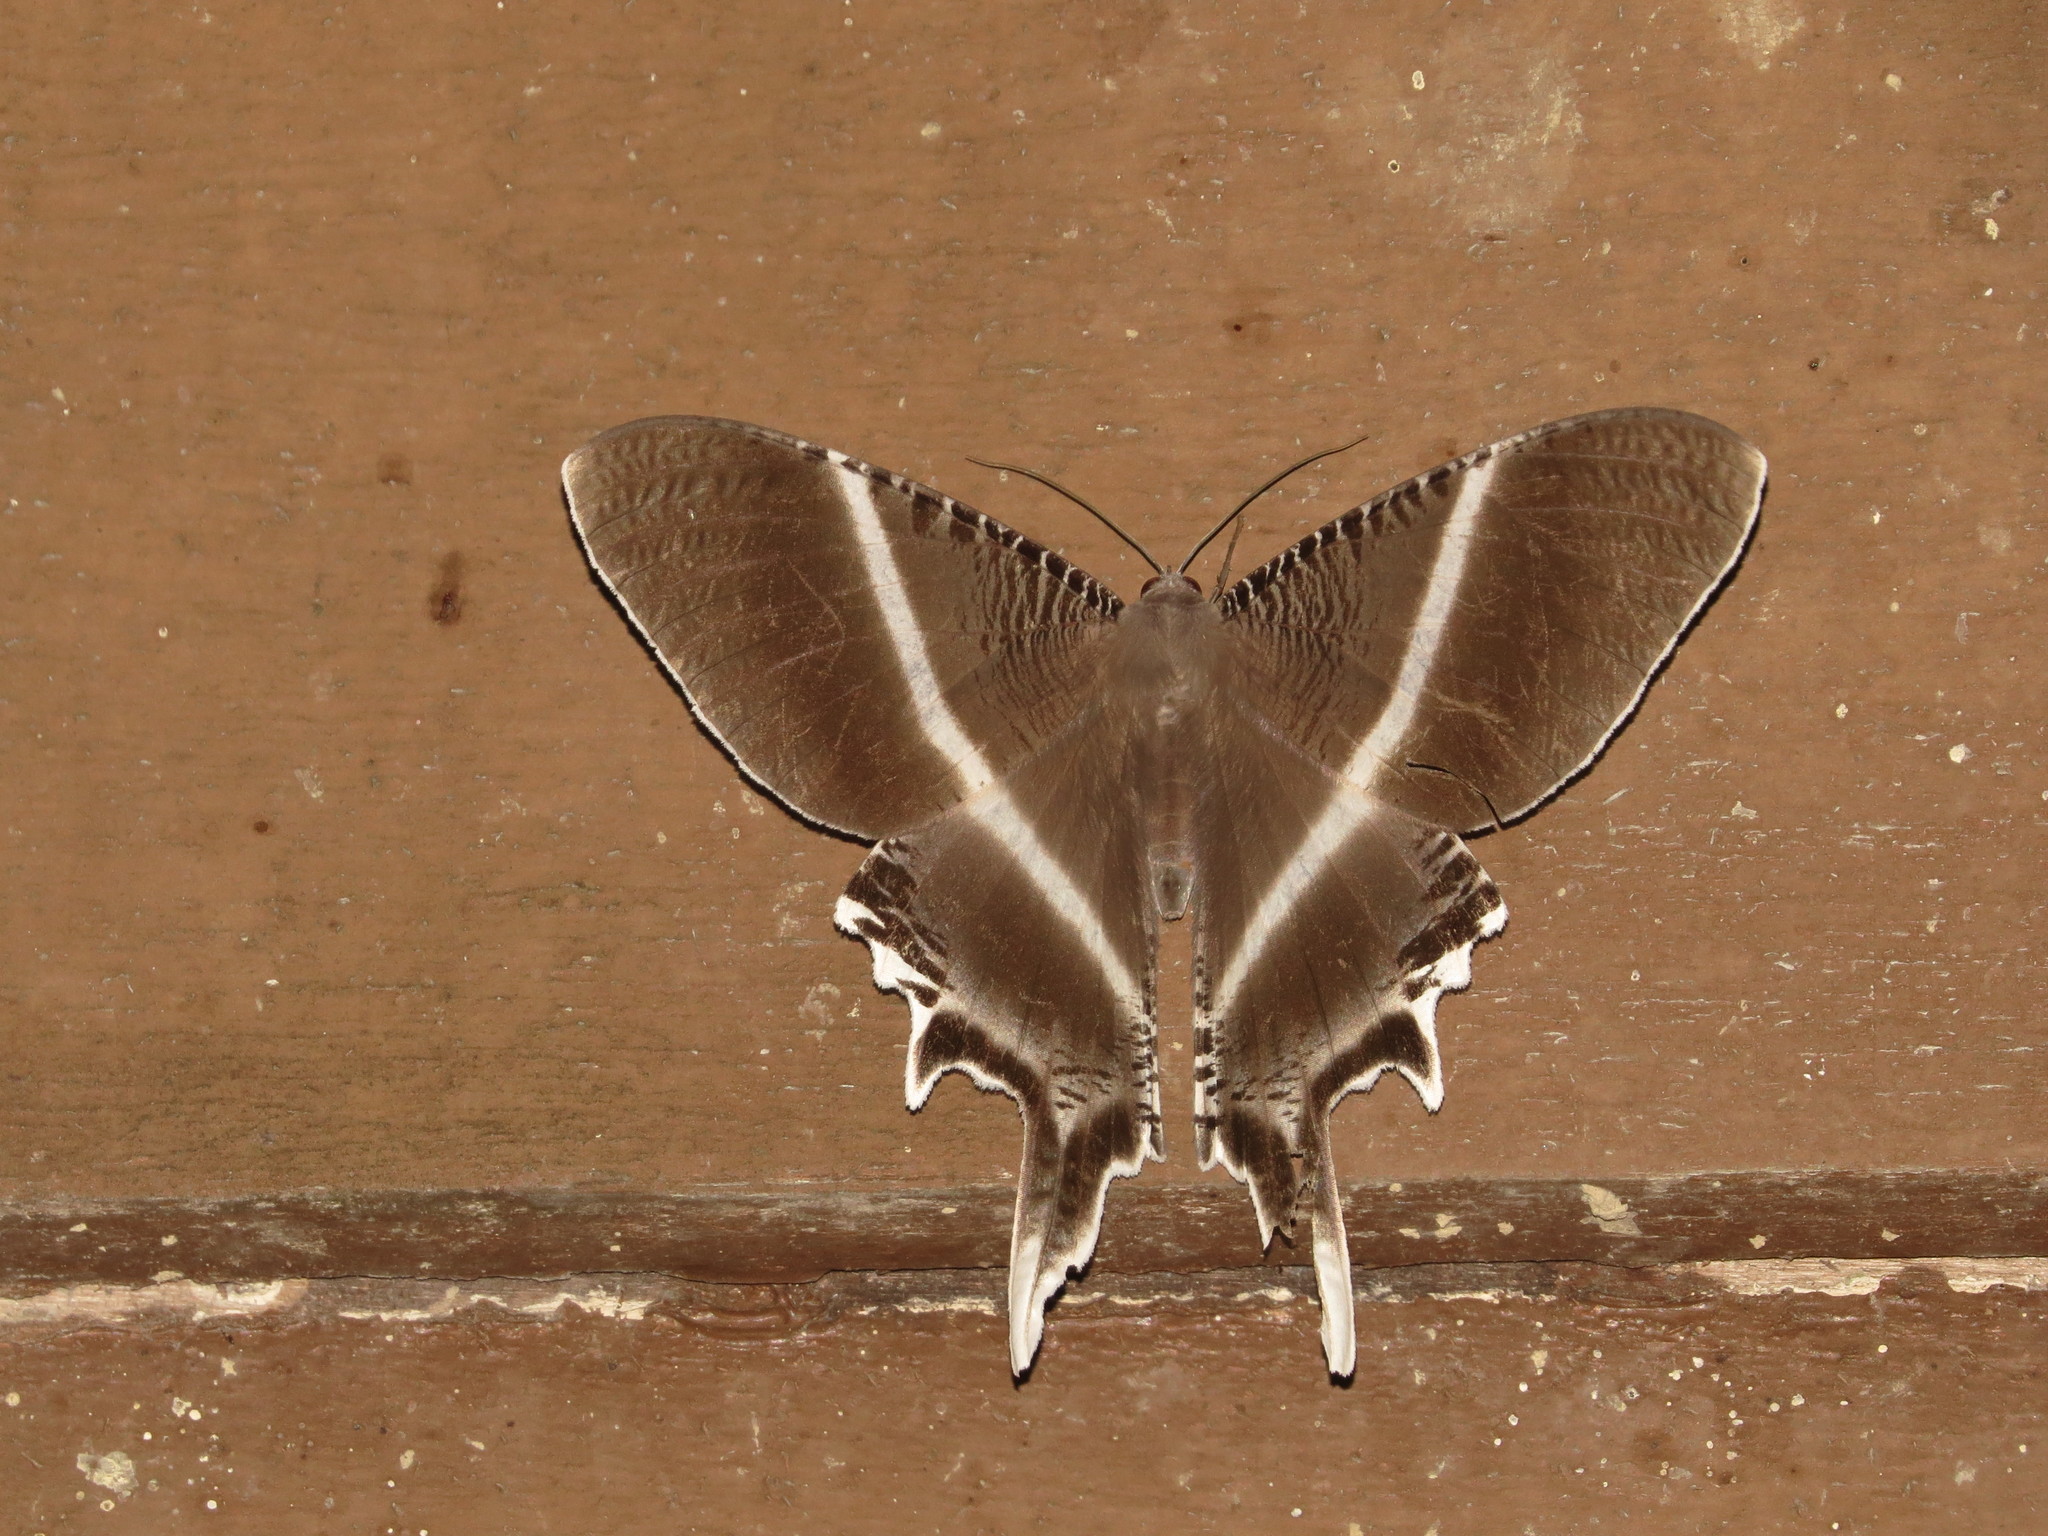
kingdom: Animalia
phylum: Arthropoda
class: Insecta
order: Lepidoptera
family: Uraniidae
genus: Lyssa
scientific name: Lyssa menoetius
